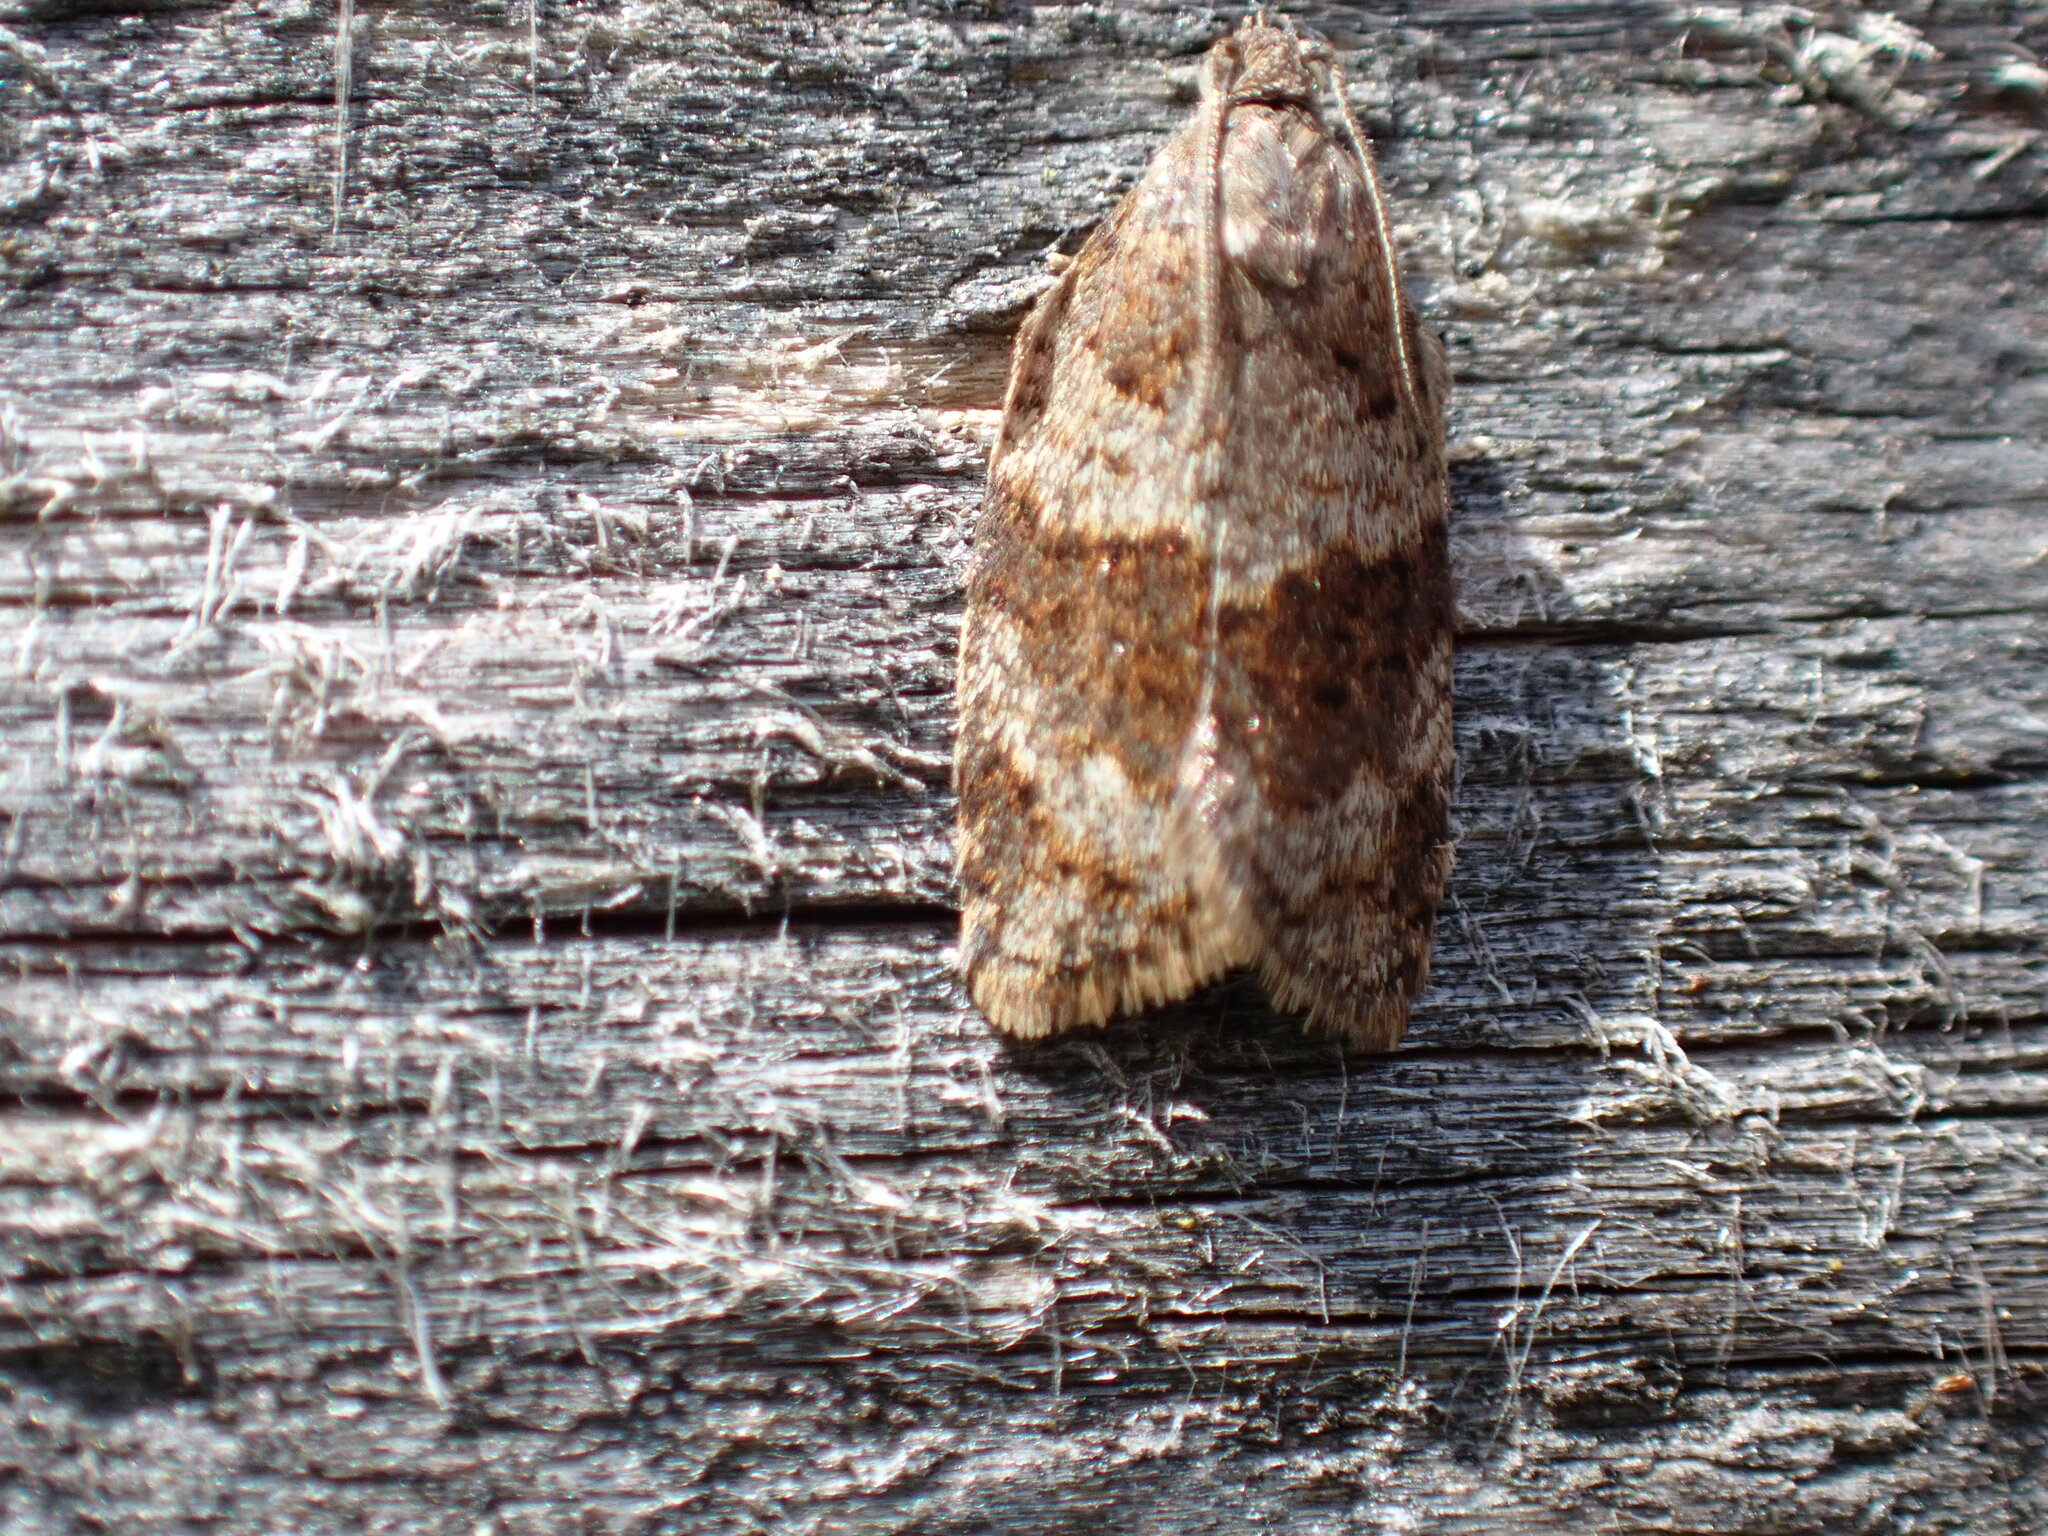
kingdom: Animalia
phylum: Arthropoda
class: Insecta
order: Lepidoptera
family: Tortricidae
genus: Syndemis
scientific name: Syndemis musculana
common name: Dark-barred twist
